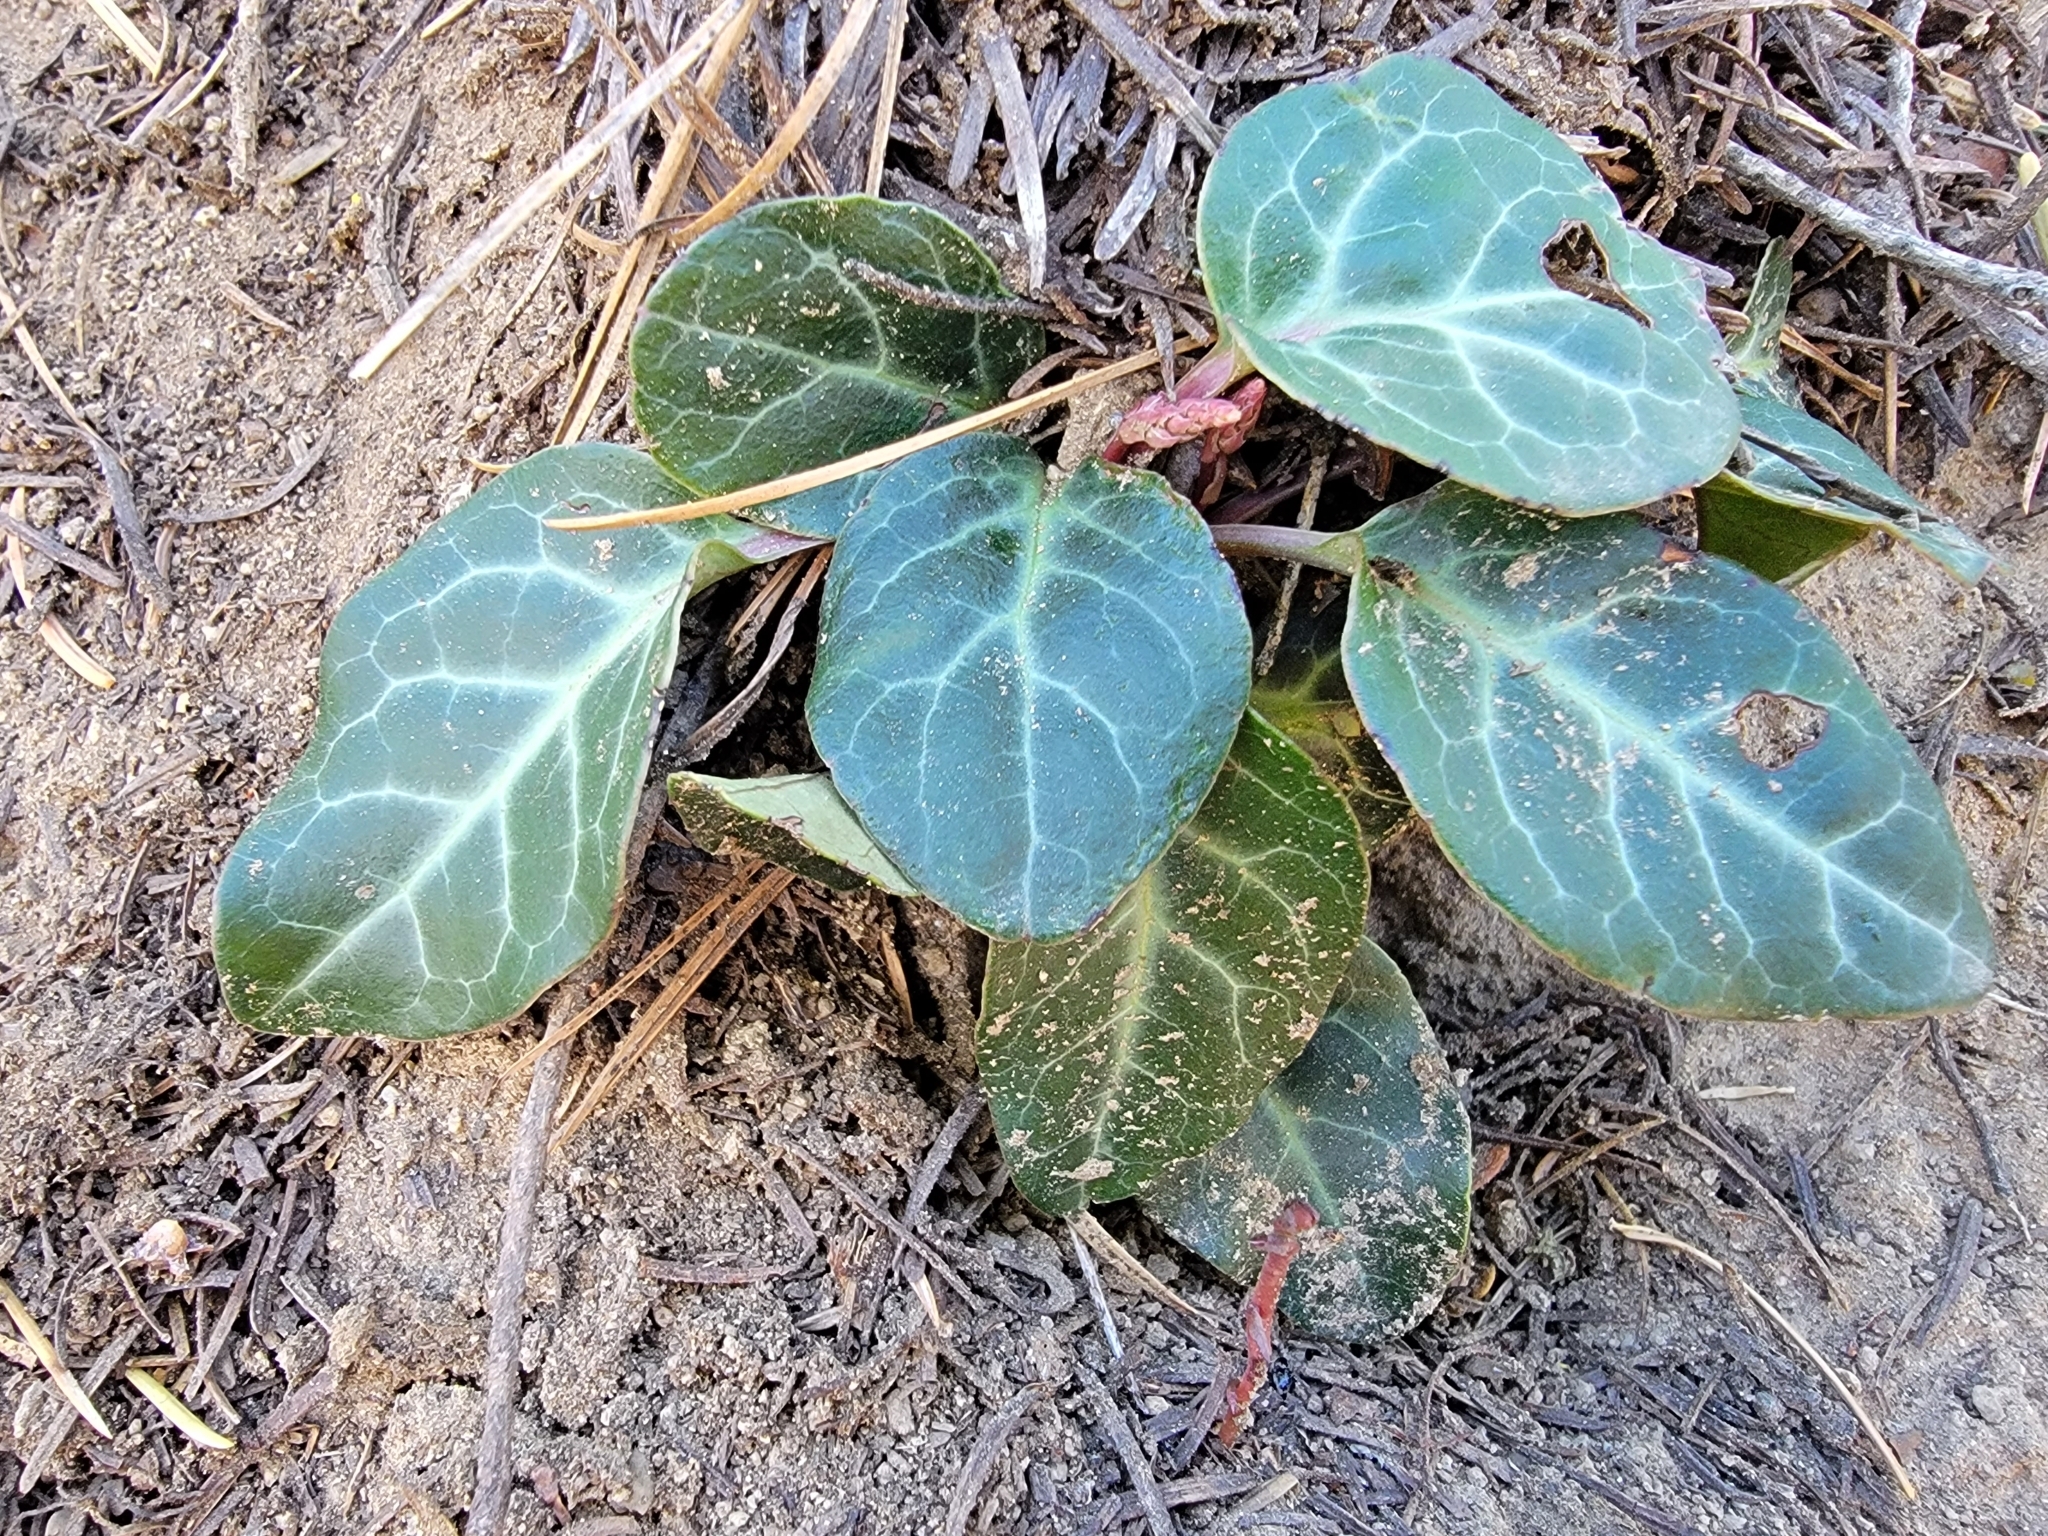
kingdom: Plantae
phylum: Tracheophyta
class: Magnoliopsida
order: Ericales
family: Ericaceae
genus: Pyrola
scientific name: Pyrola picta
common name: White-vein wintergreen
